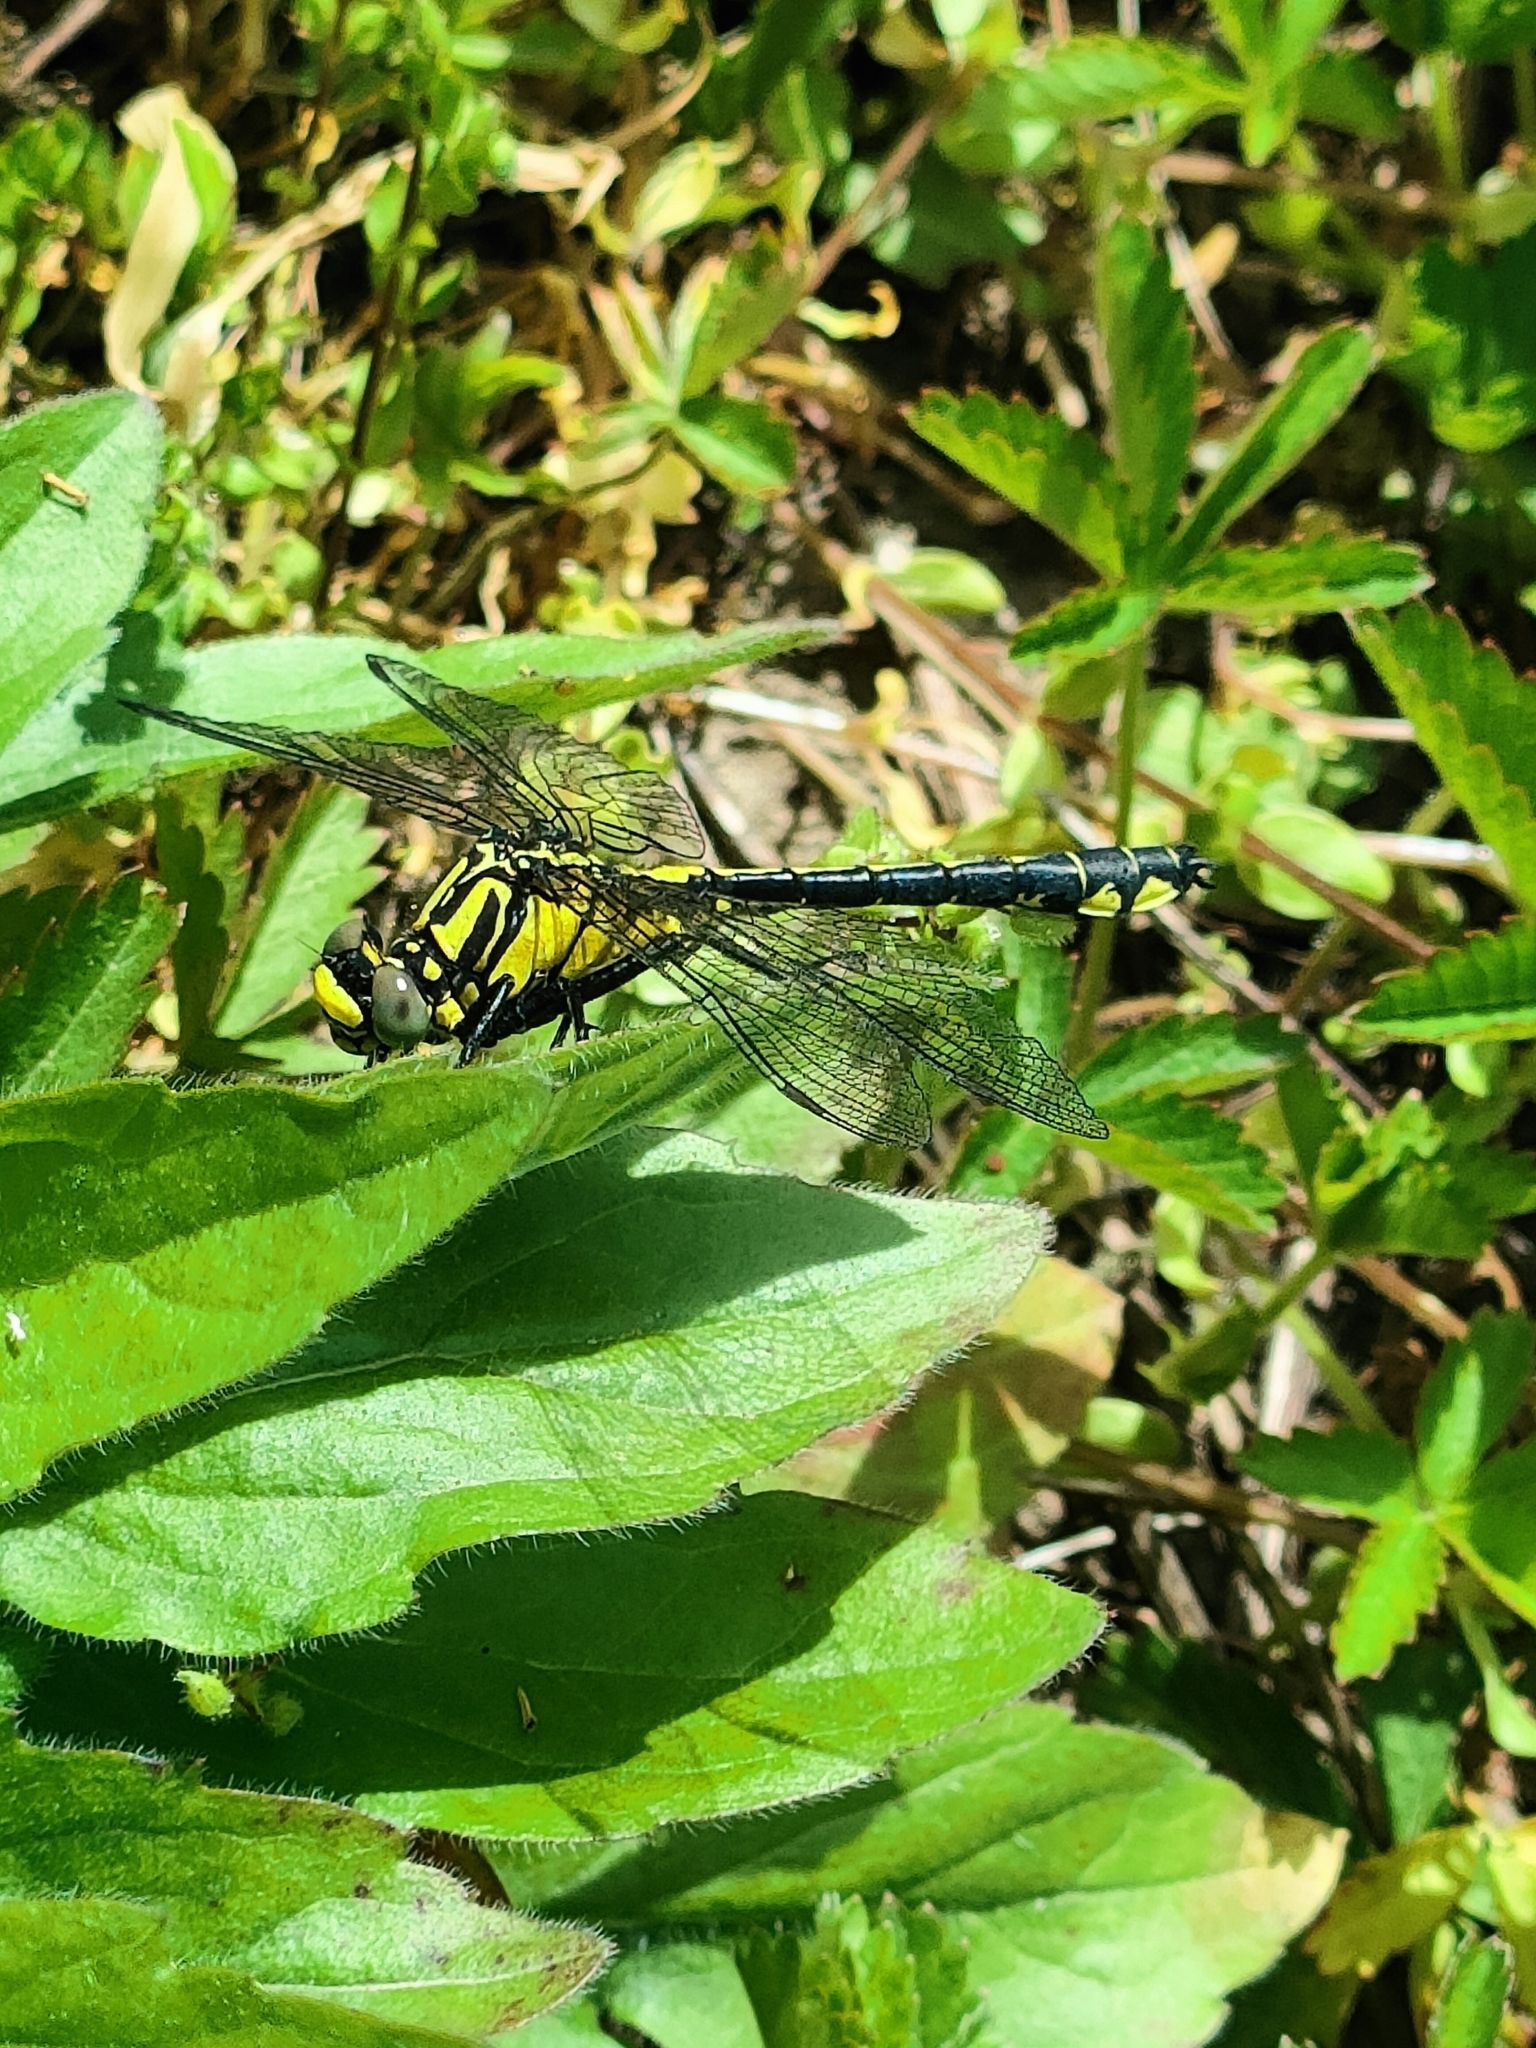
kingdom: Animalia
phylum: Arthropoda
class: Insecta
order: Odonata
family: Gomphidae
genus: Gomphus
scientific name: Gomphus vulgatissimus
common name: Club-tailed dragonfly
